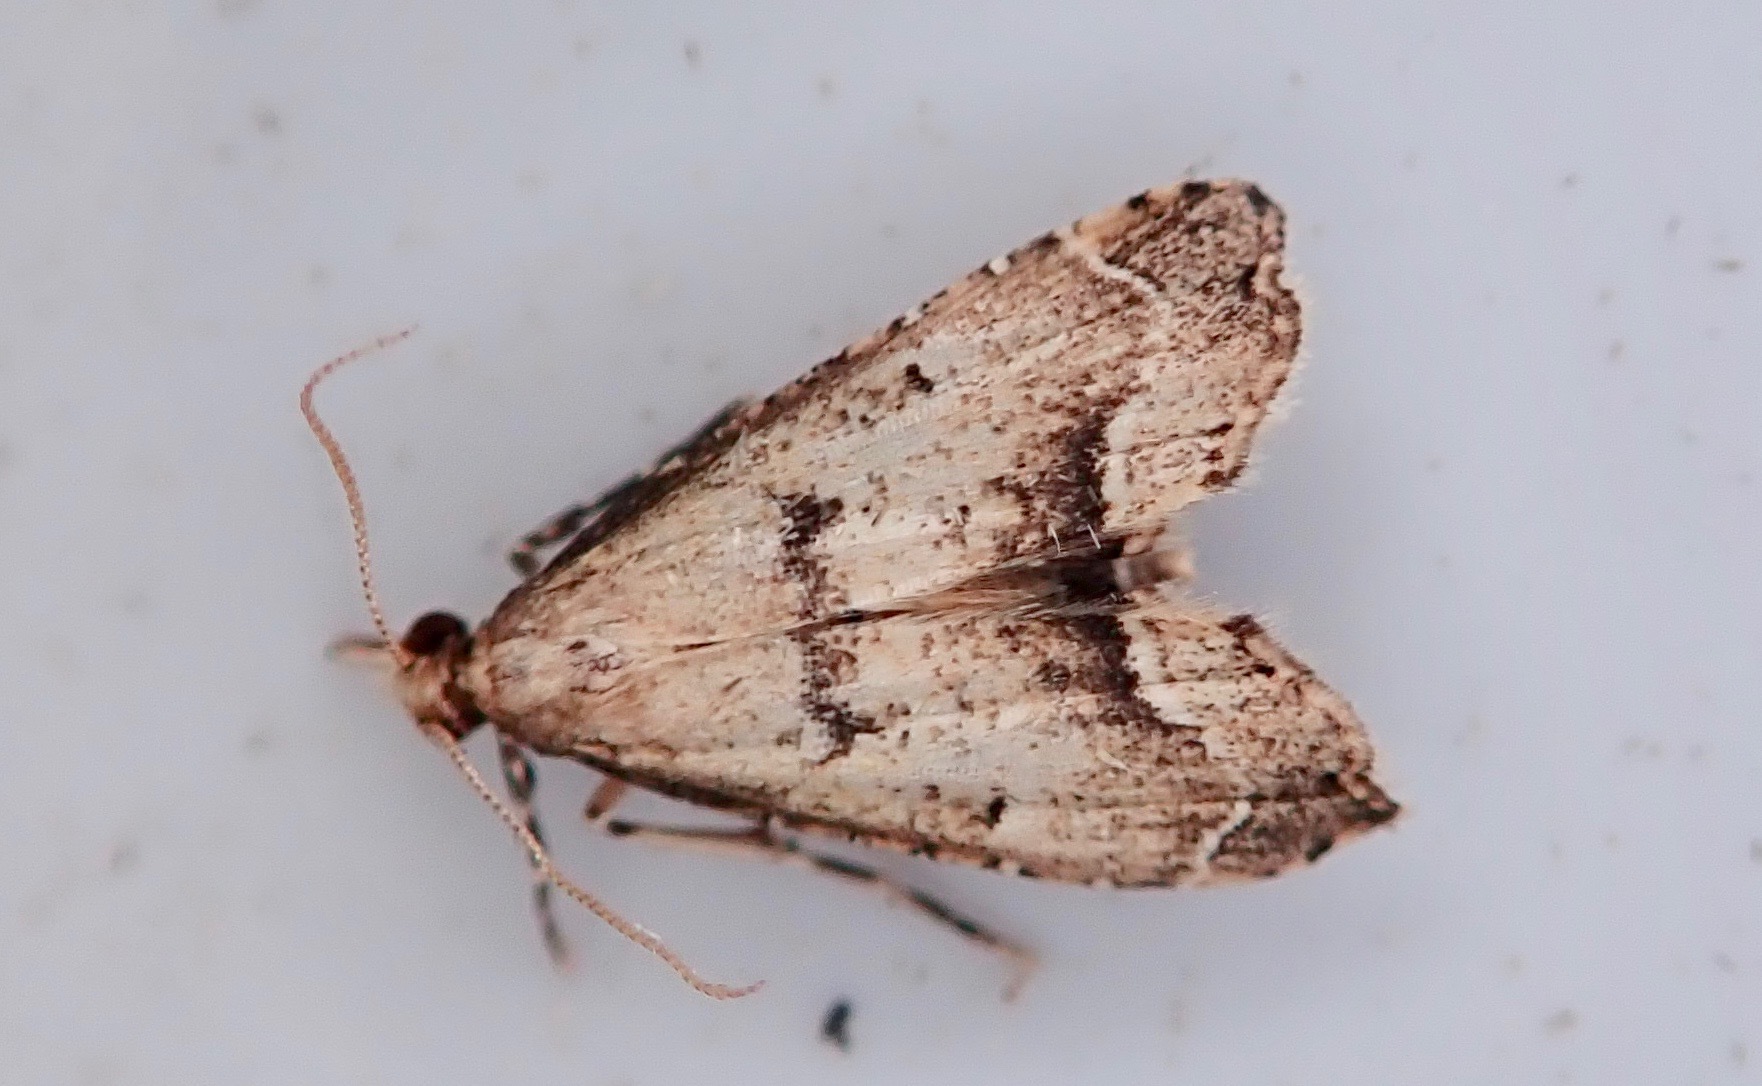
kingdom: Animalia
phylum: Arthropoda
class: Insecta
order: Lepidoptera
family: Crambidae
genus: Diplopseustis
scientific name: Diplopseustis perieresalis
